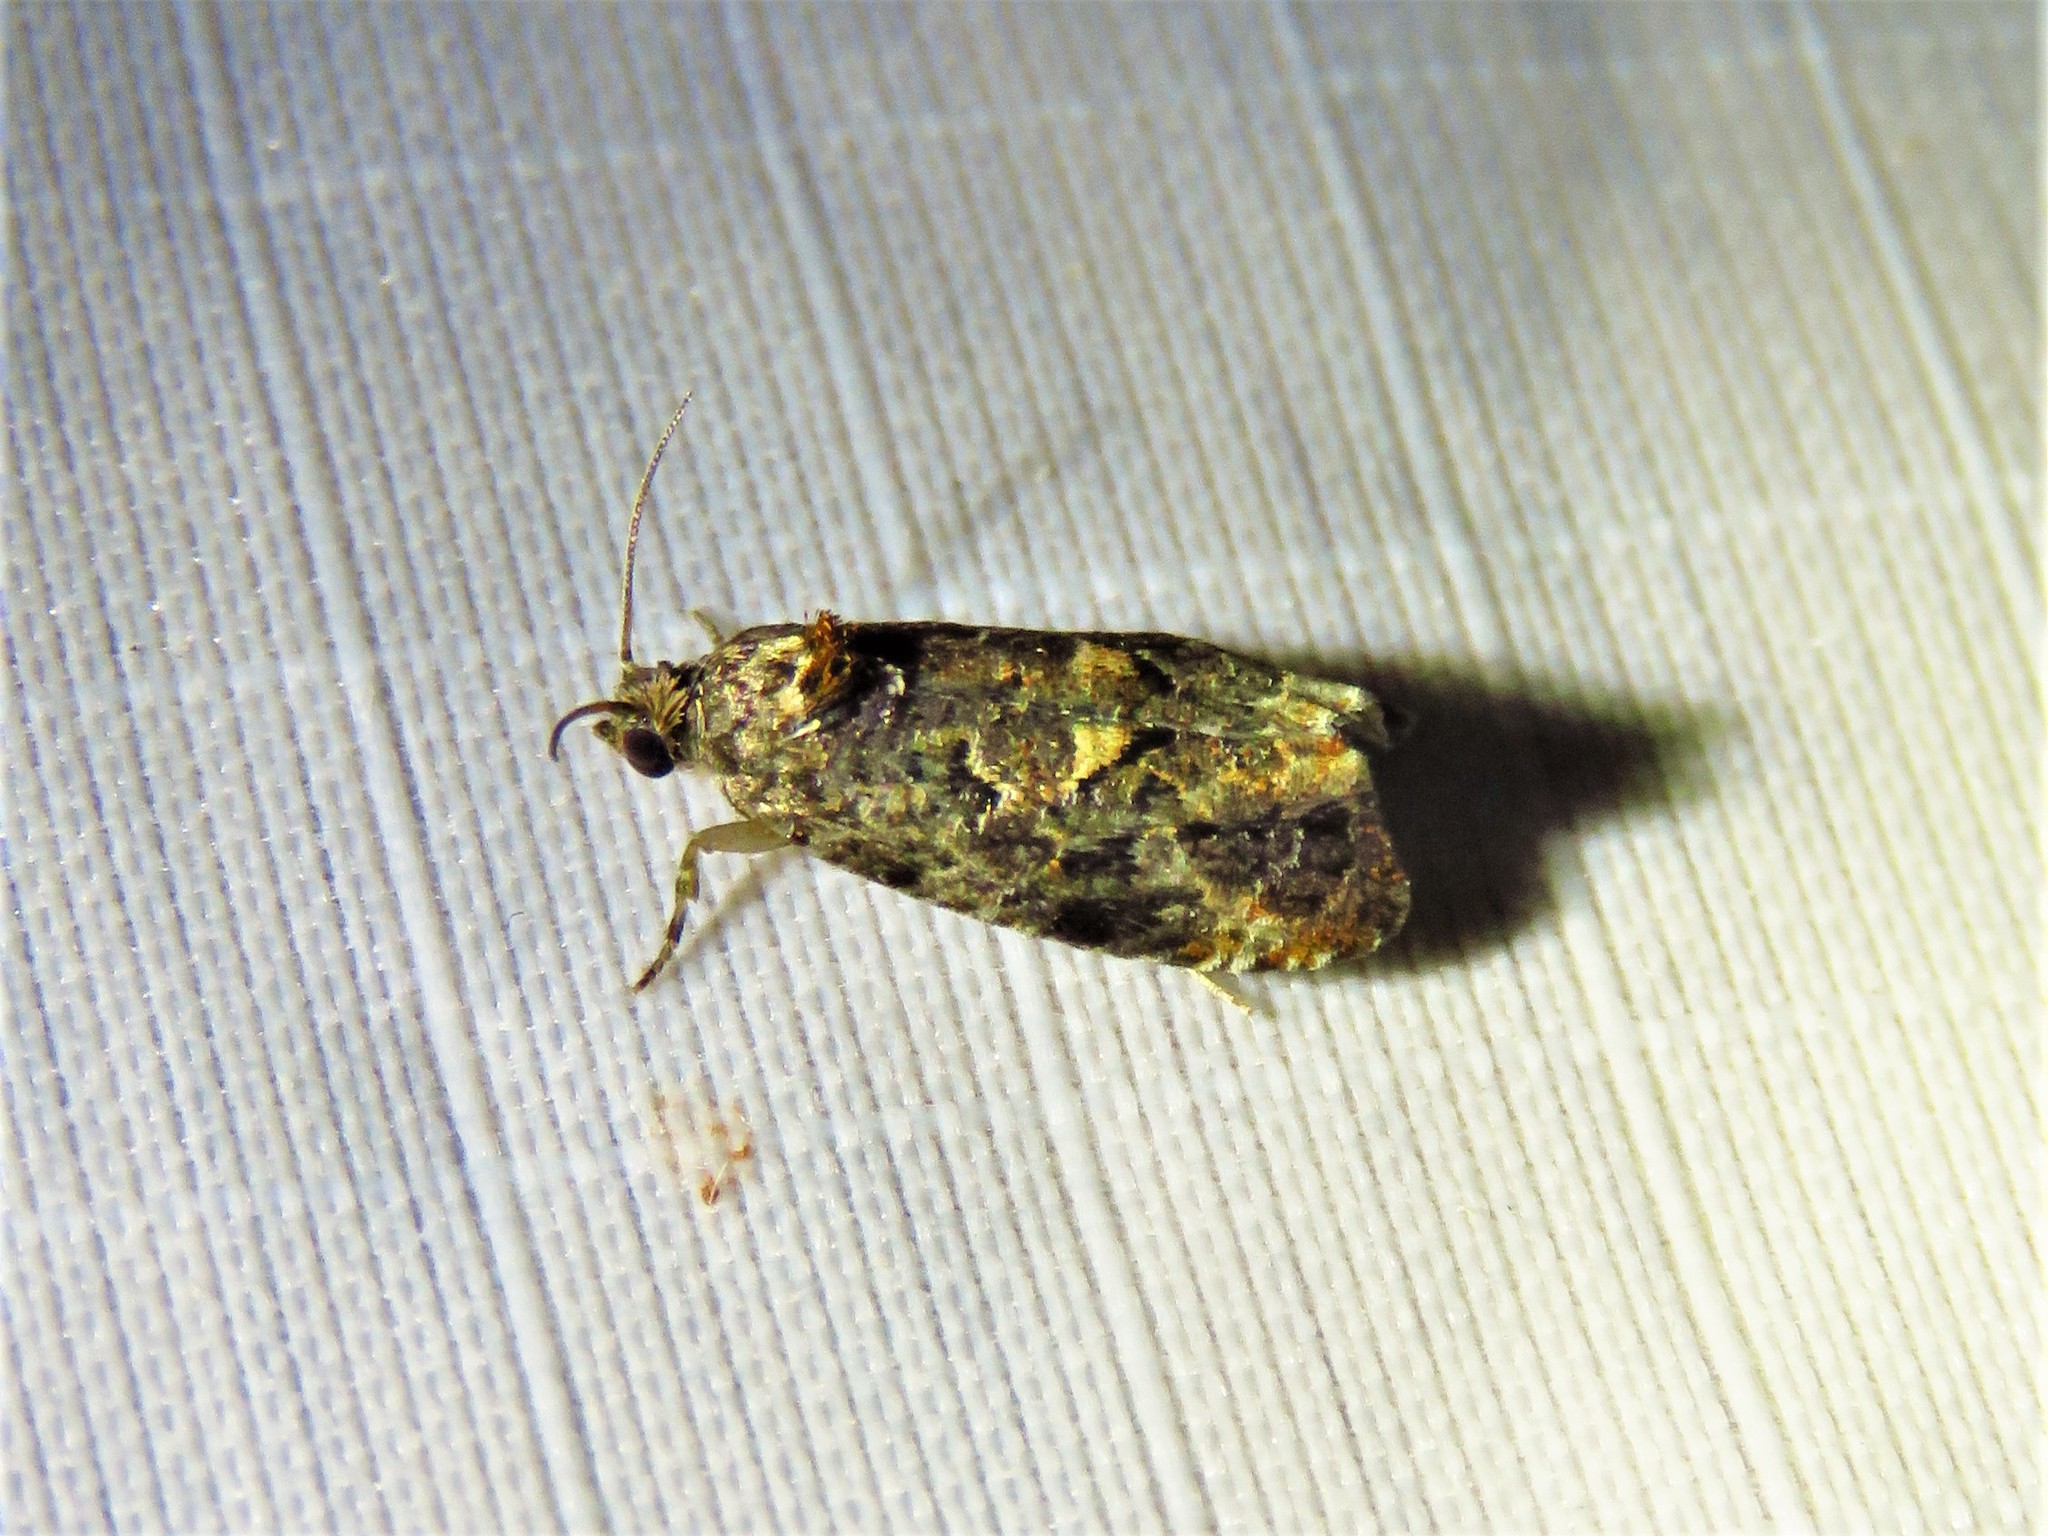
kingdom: Animalia
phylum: Arthropoda
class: Insecta
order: Lepidoptera
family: Tortricidae
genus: Endothenia
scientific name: Endothenia hebesana
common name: Verbena bud moth
